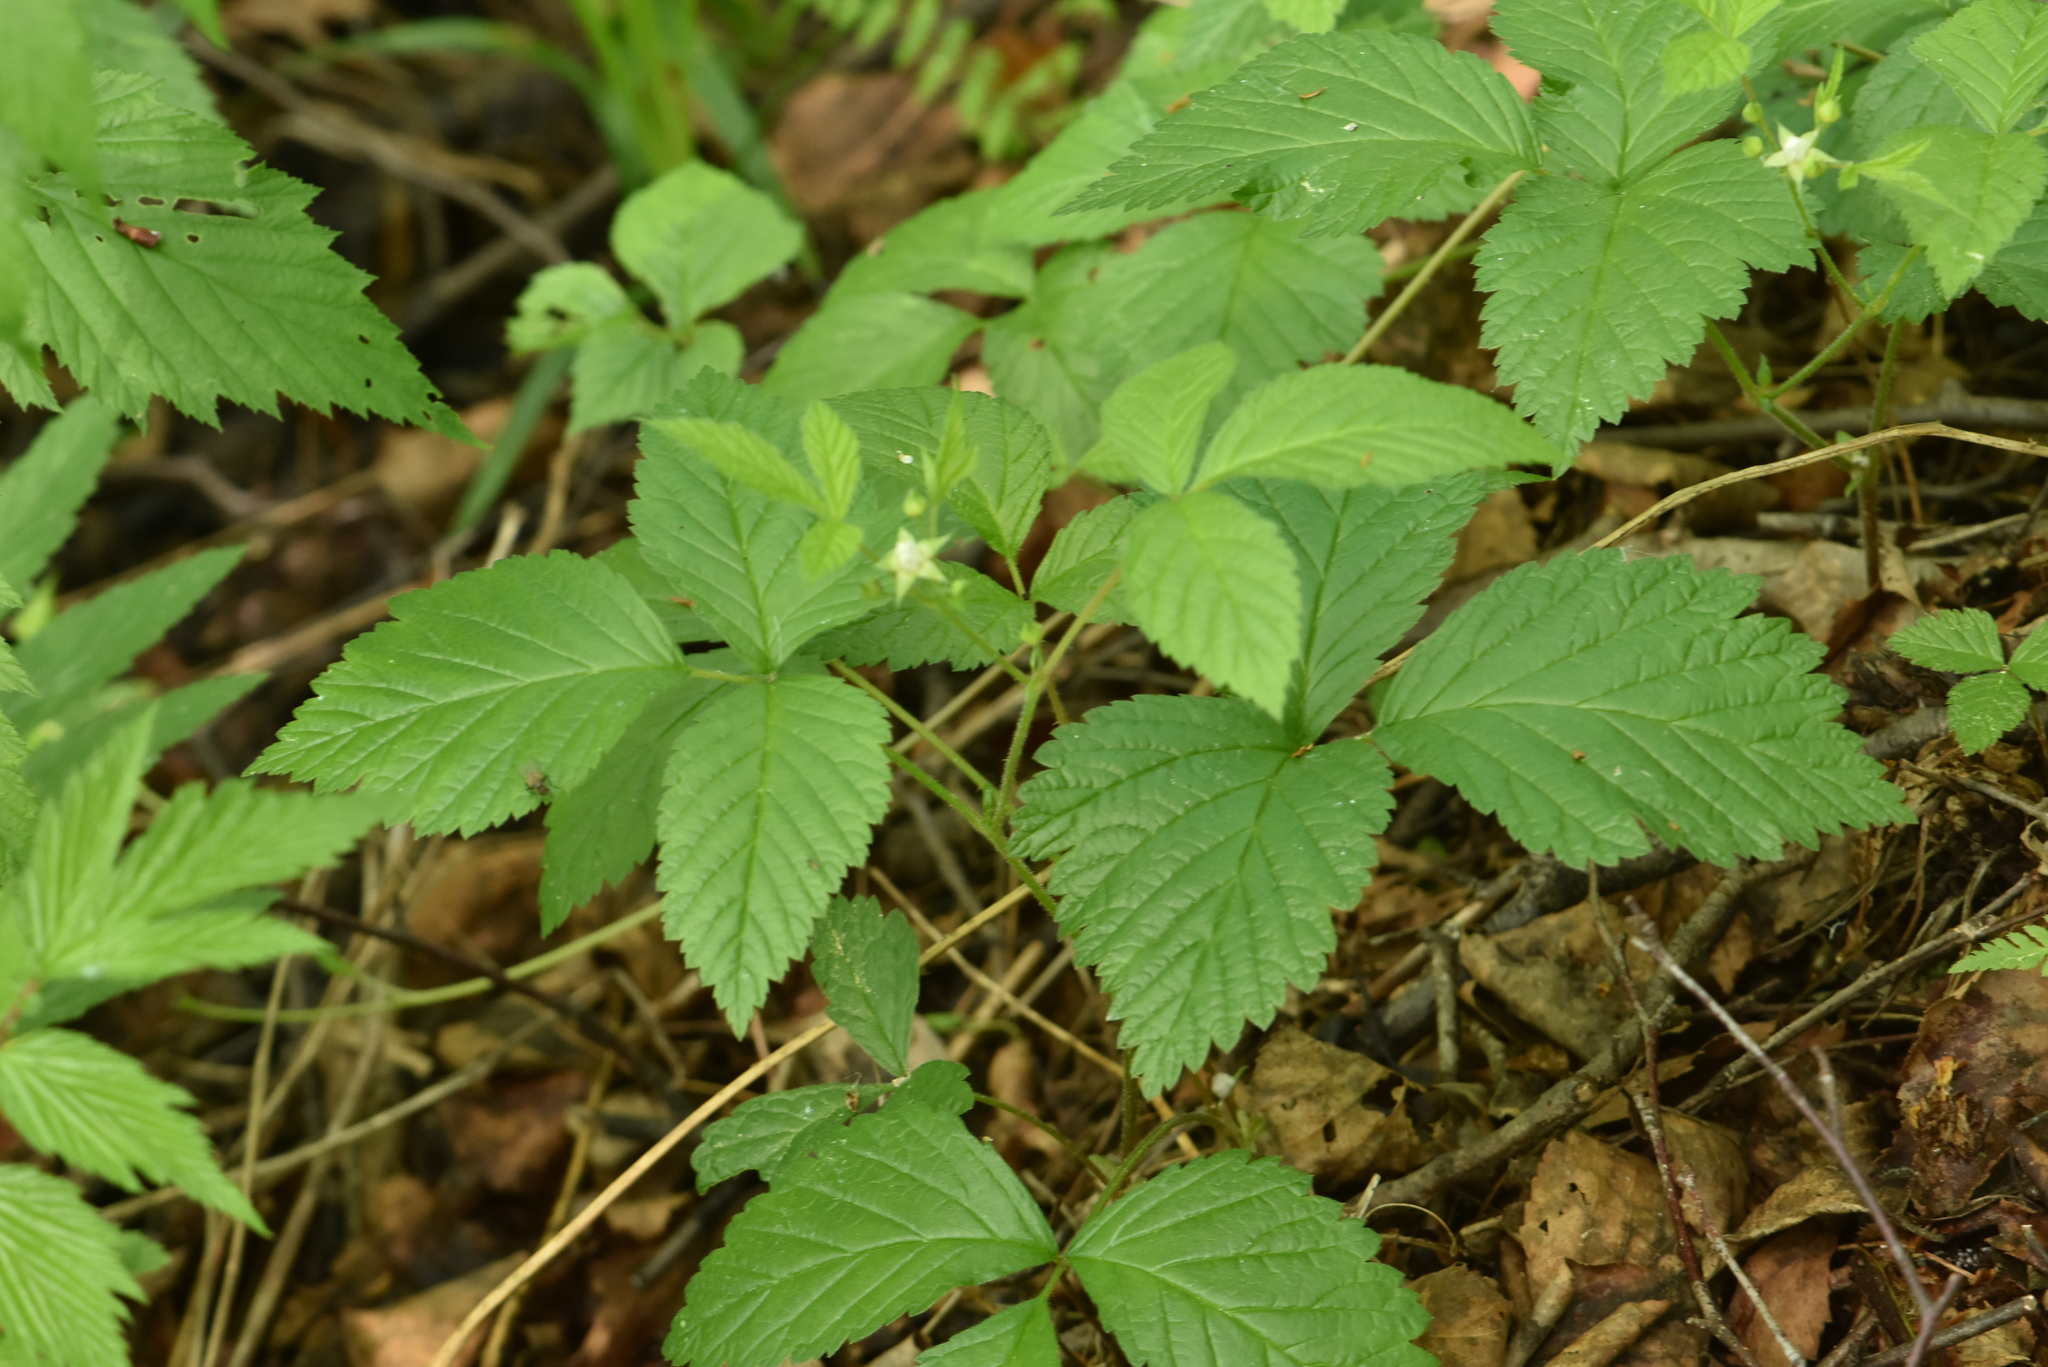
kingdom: Plantae
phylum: Tracheophyta
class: Magnoliopsida
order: Rosales
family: Rosaceae
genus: Rubus
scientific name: Rubus saxatilis
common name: Stone bramble
